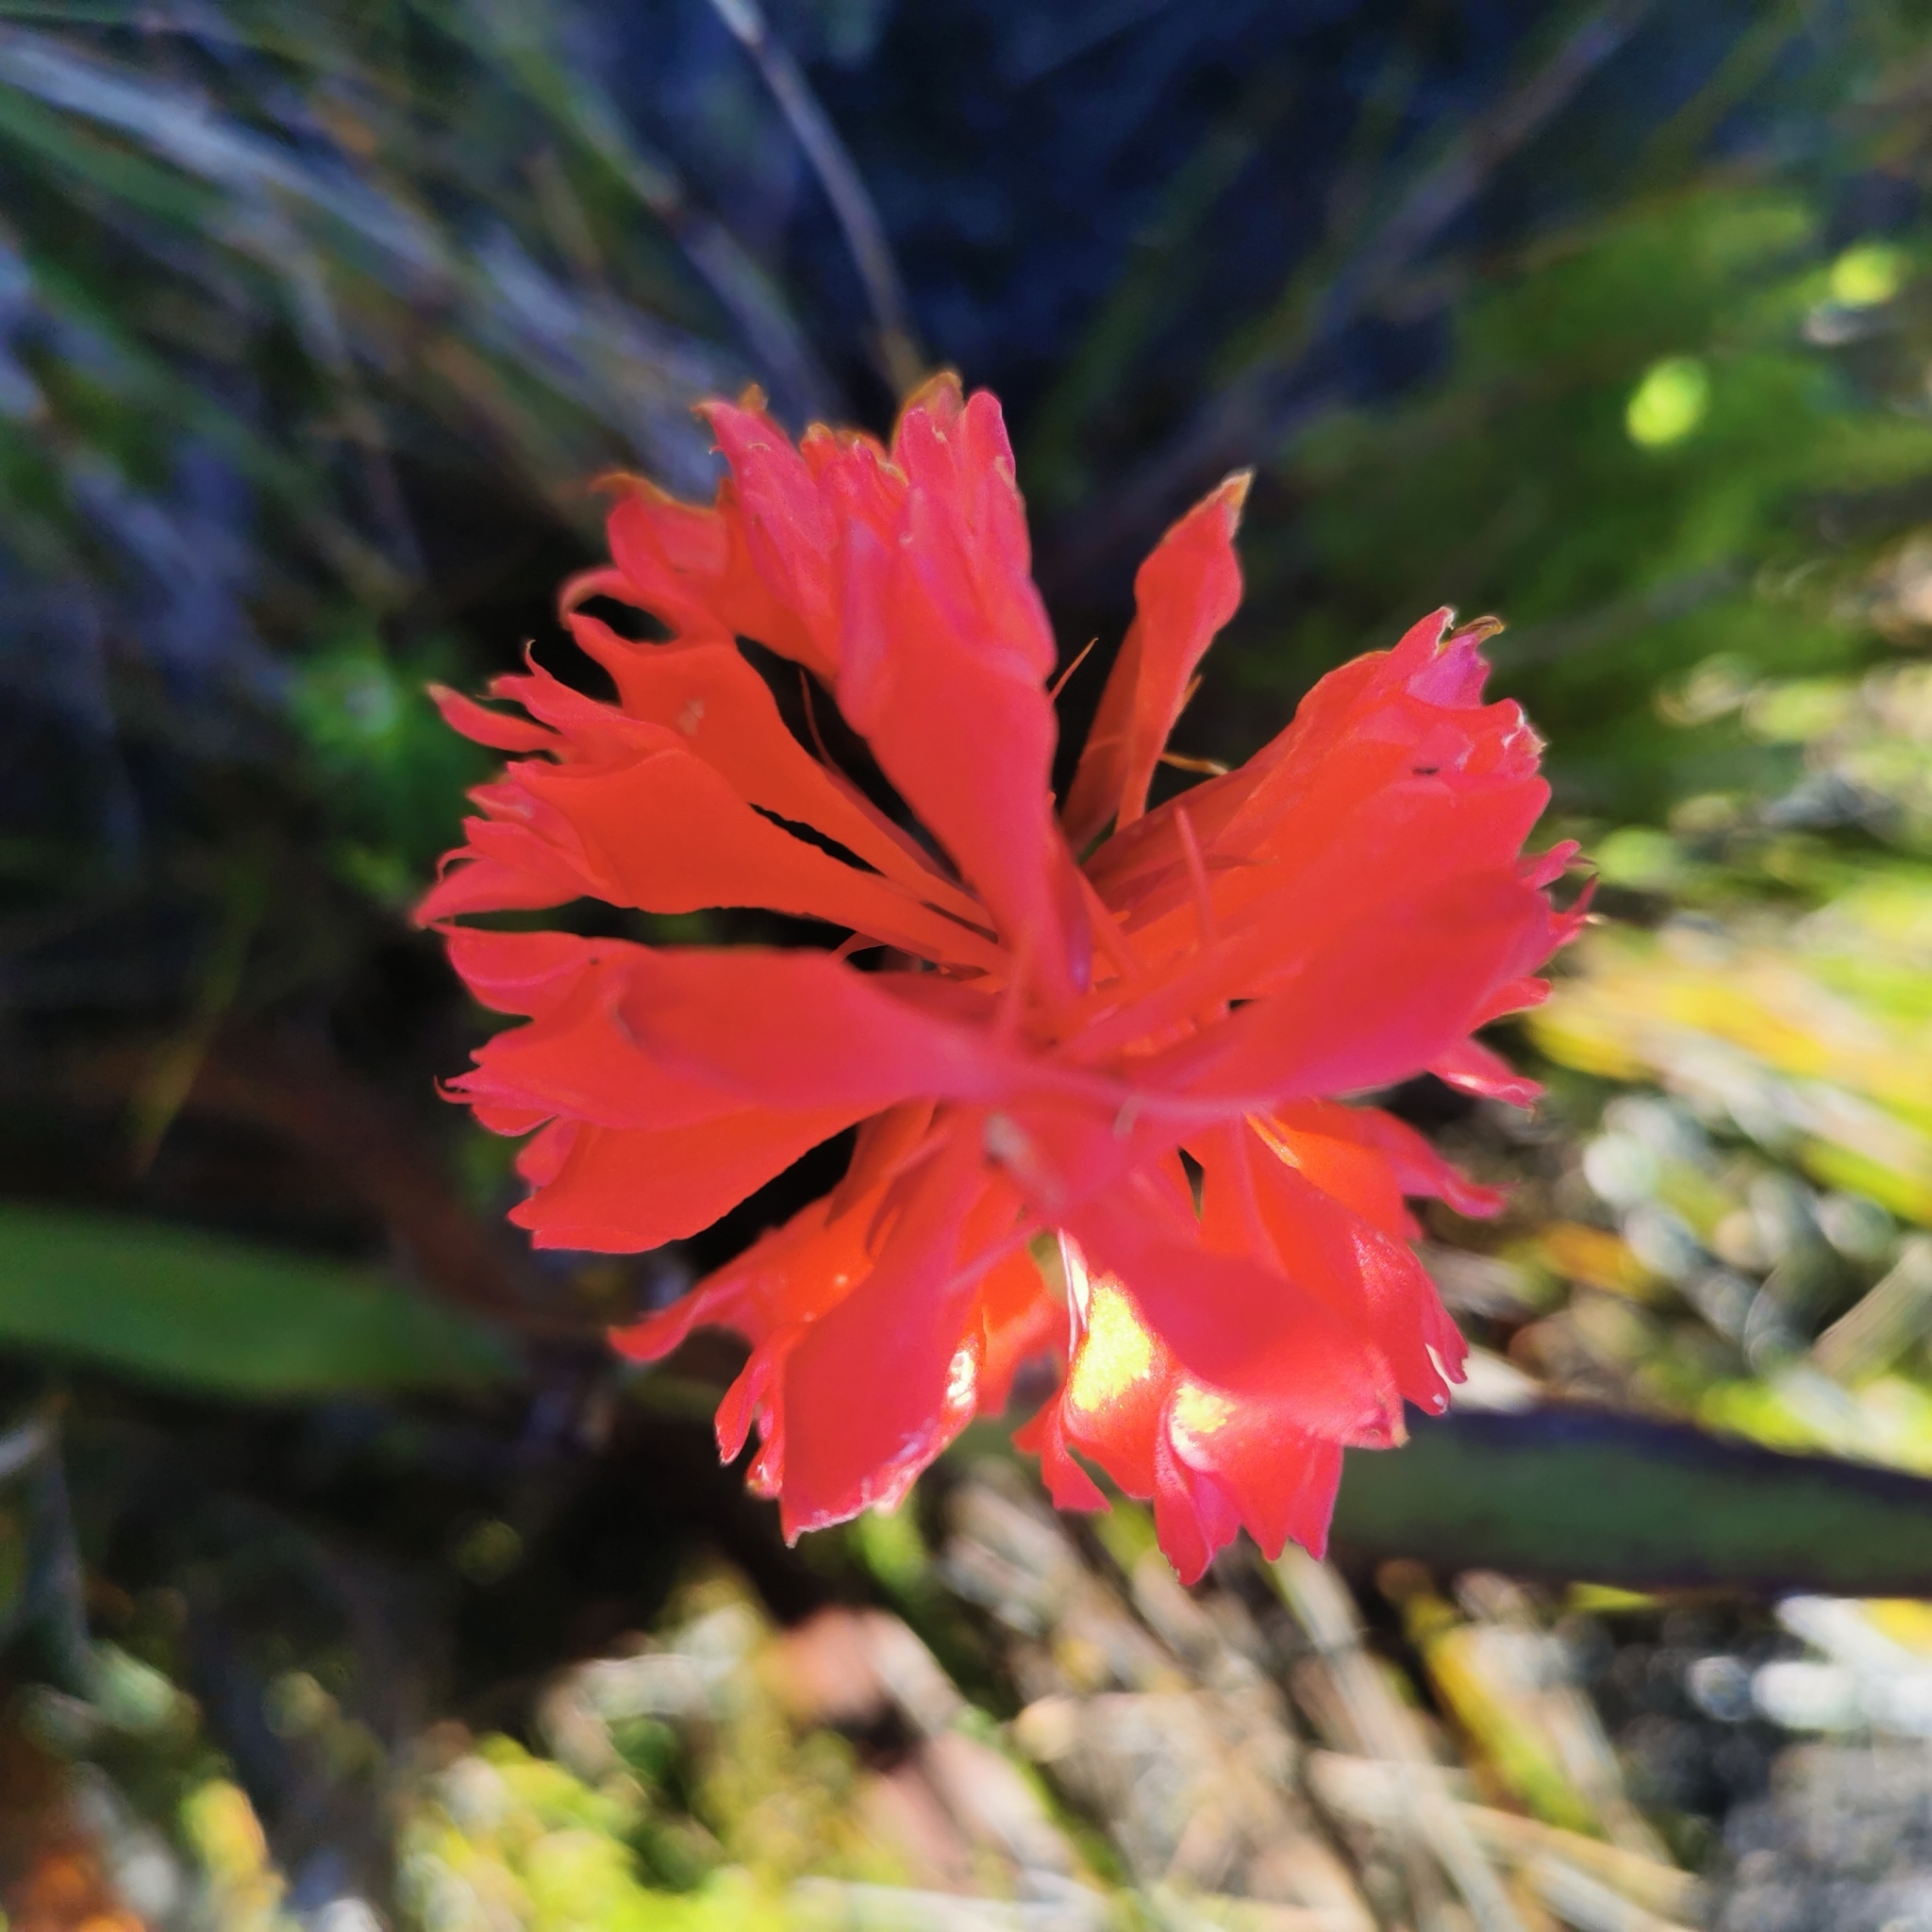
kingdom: Plantae
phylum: Tracheophyta
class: Liliopsida
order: Asparagales
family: Orchidaceae
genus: Disa
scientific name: Disa ferruginea
